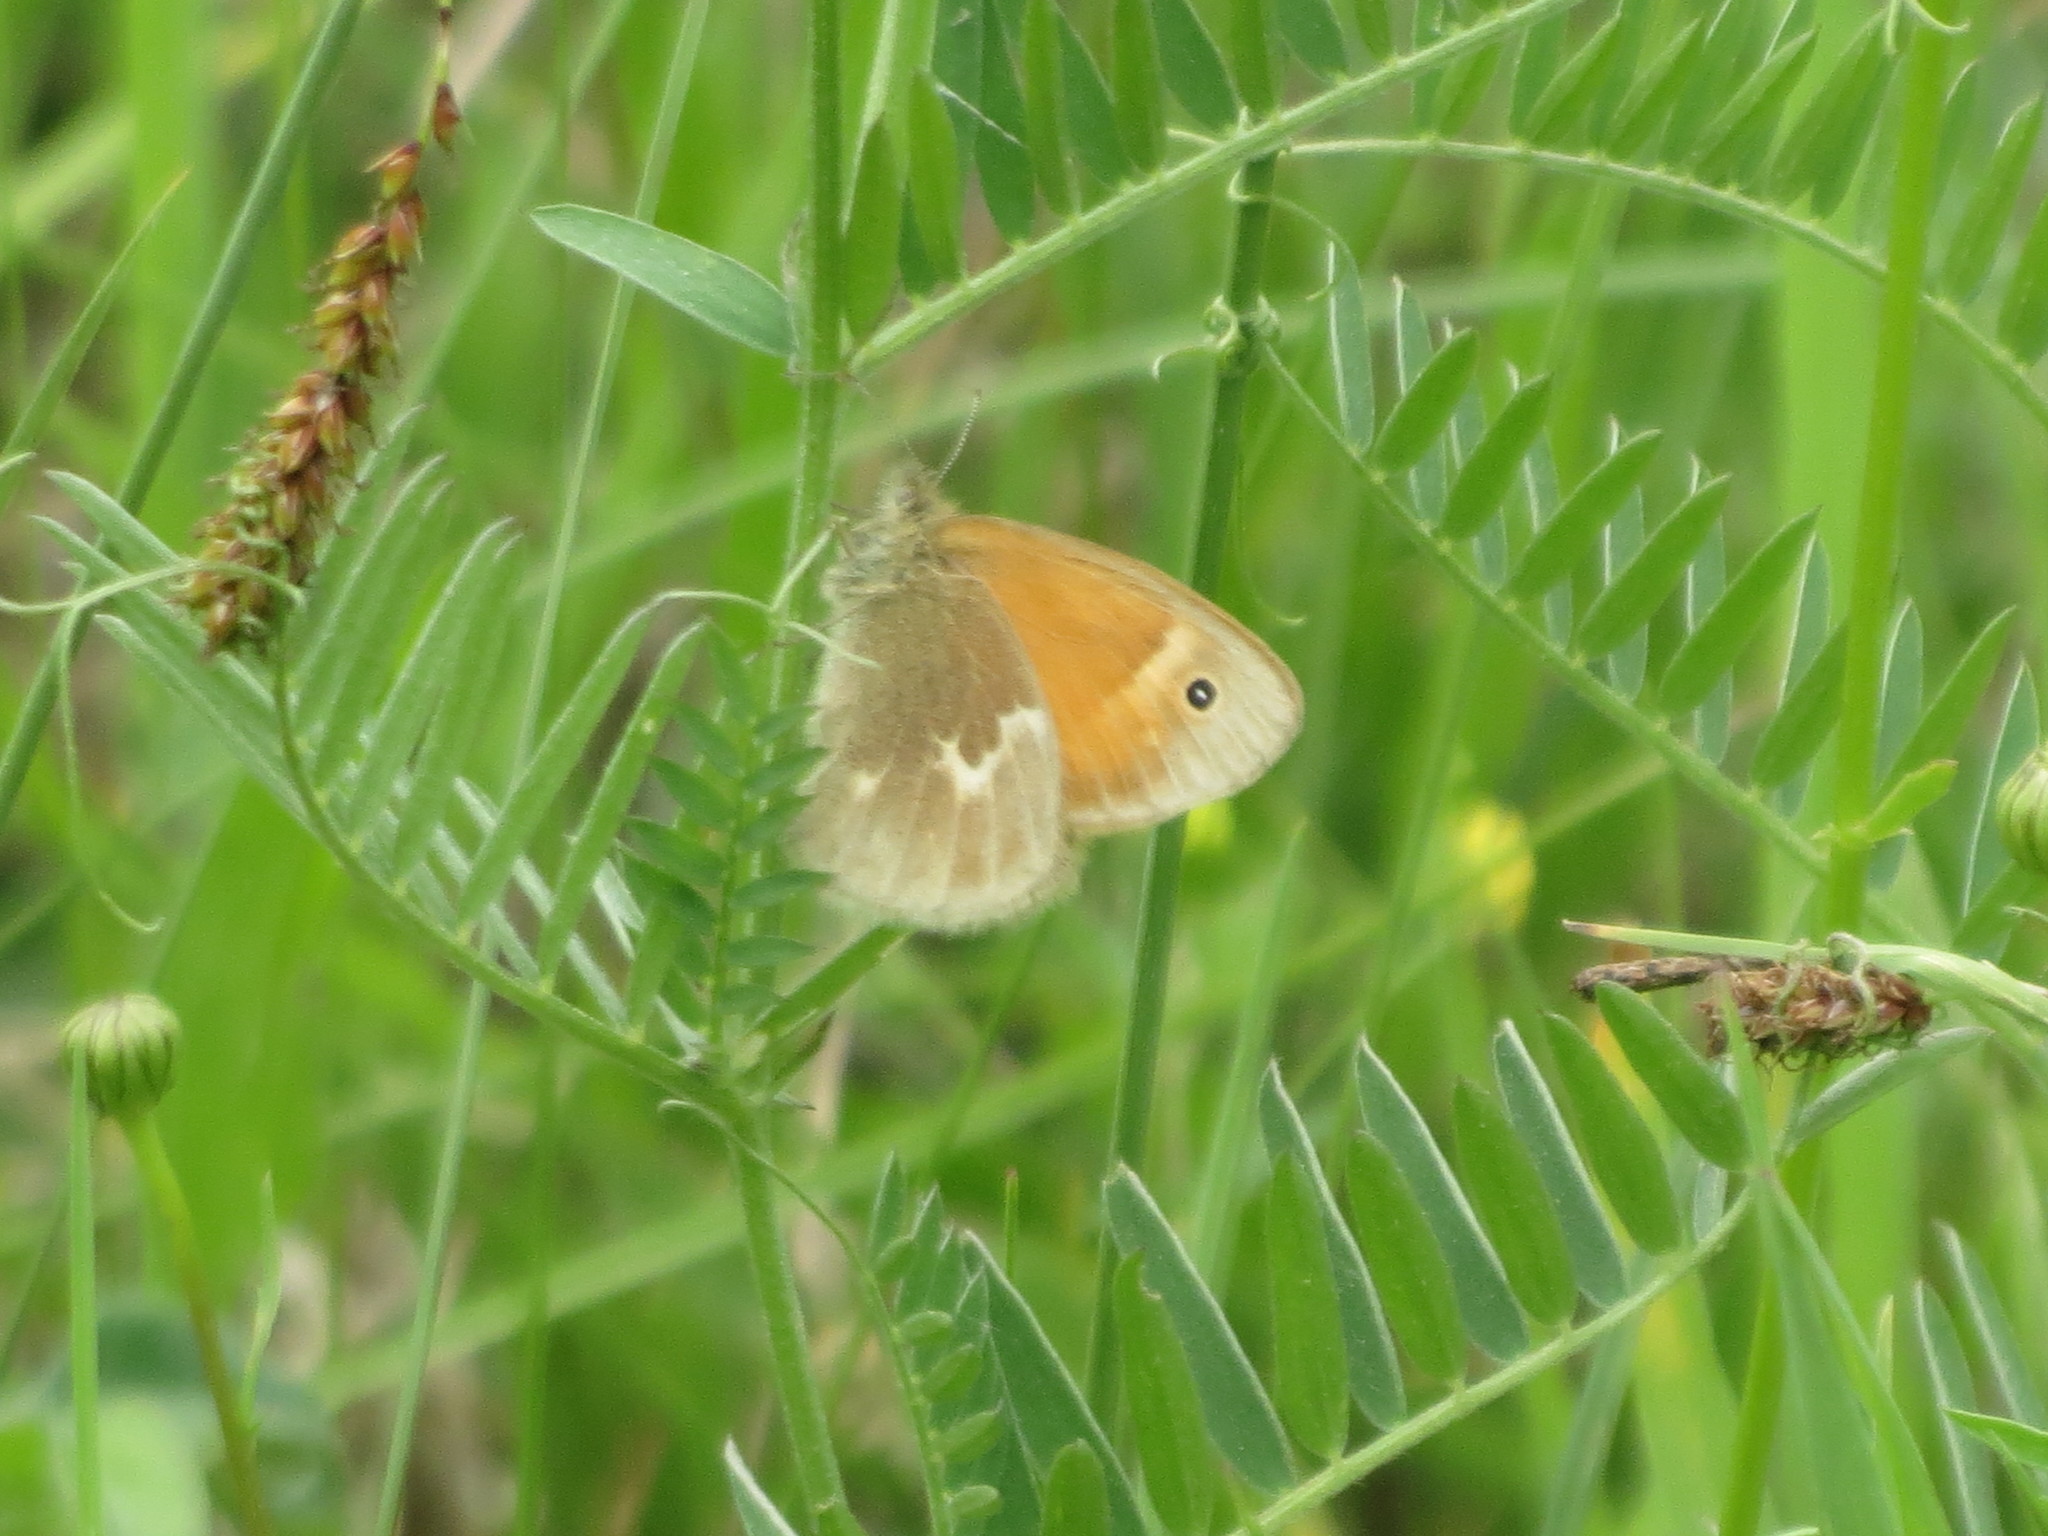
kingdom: Animalia
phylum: Arthropoda
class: Insecta
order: Lepidoptera
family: Nymphalidae
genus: Coenonympha
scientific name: Coenonympha california
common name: Common ringlet
